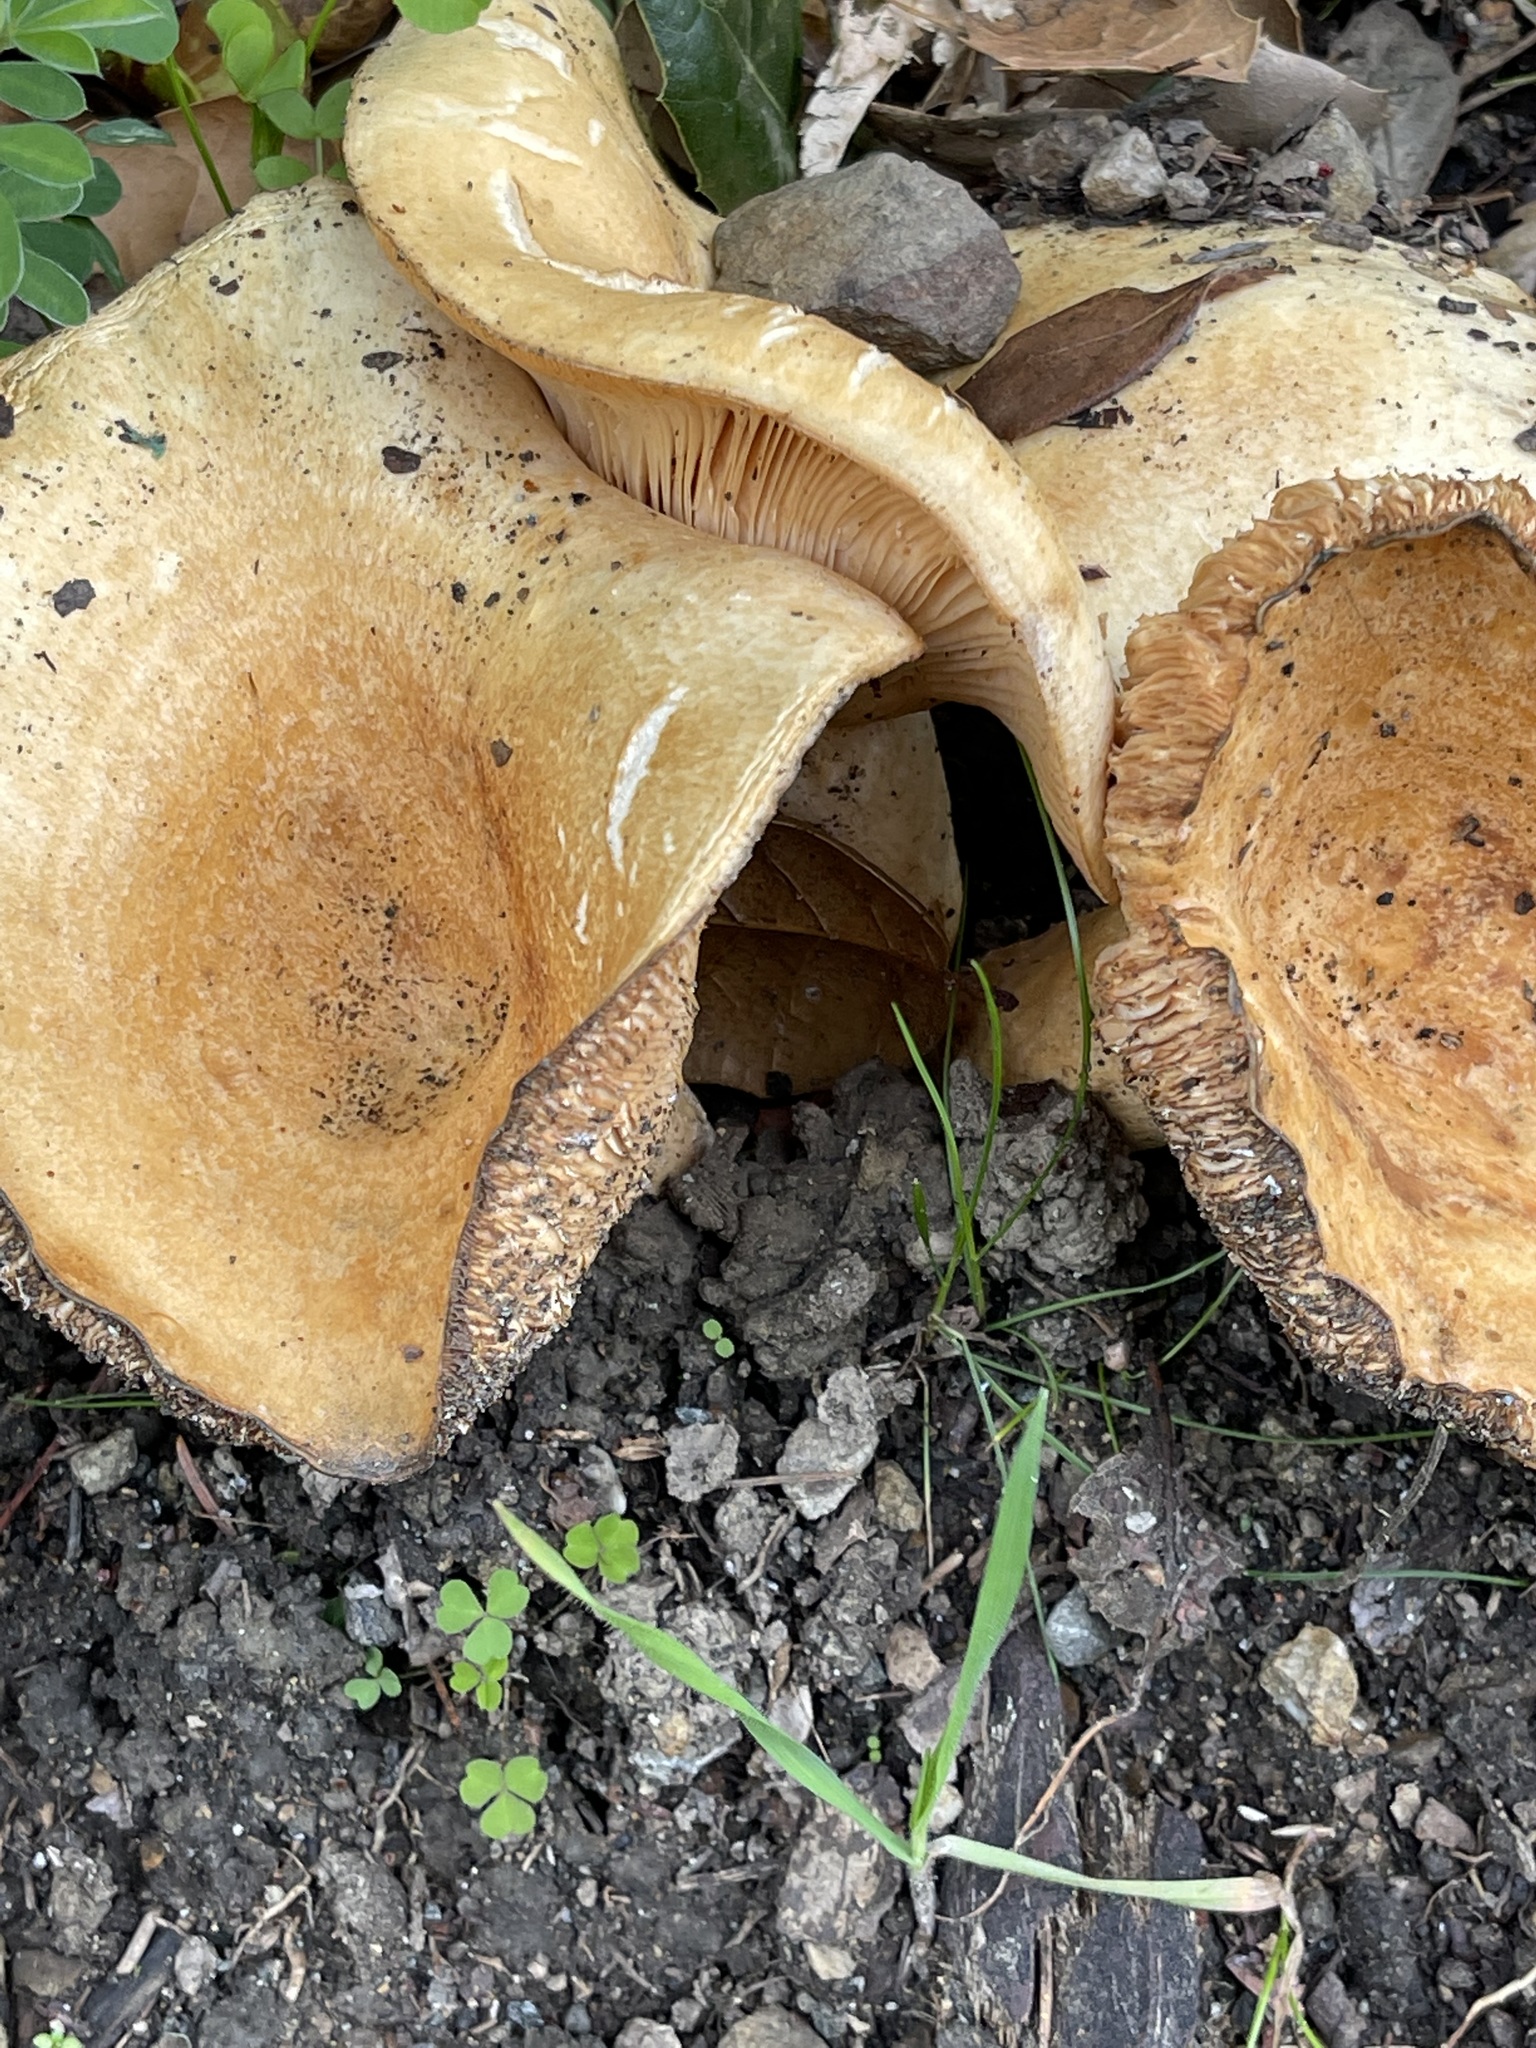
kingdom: Fungi
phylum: Basidiomycota
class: Agaricomycetes
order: Russulales
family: Russulaceae
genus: Lactarius
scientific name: Lactarius alnicola
